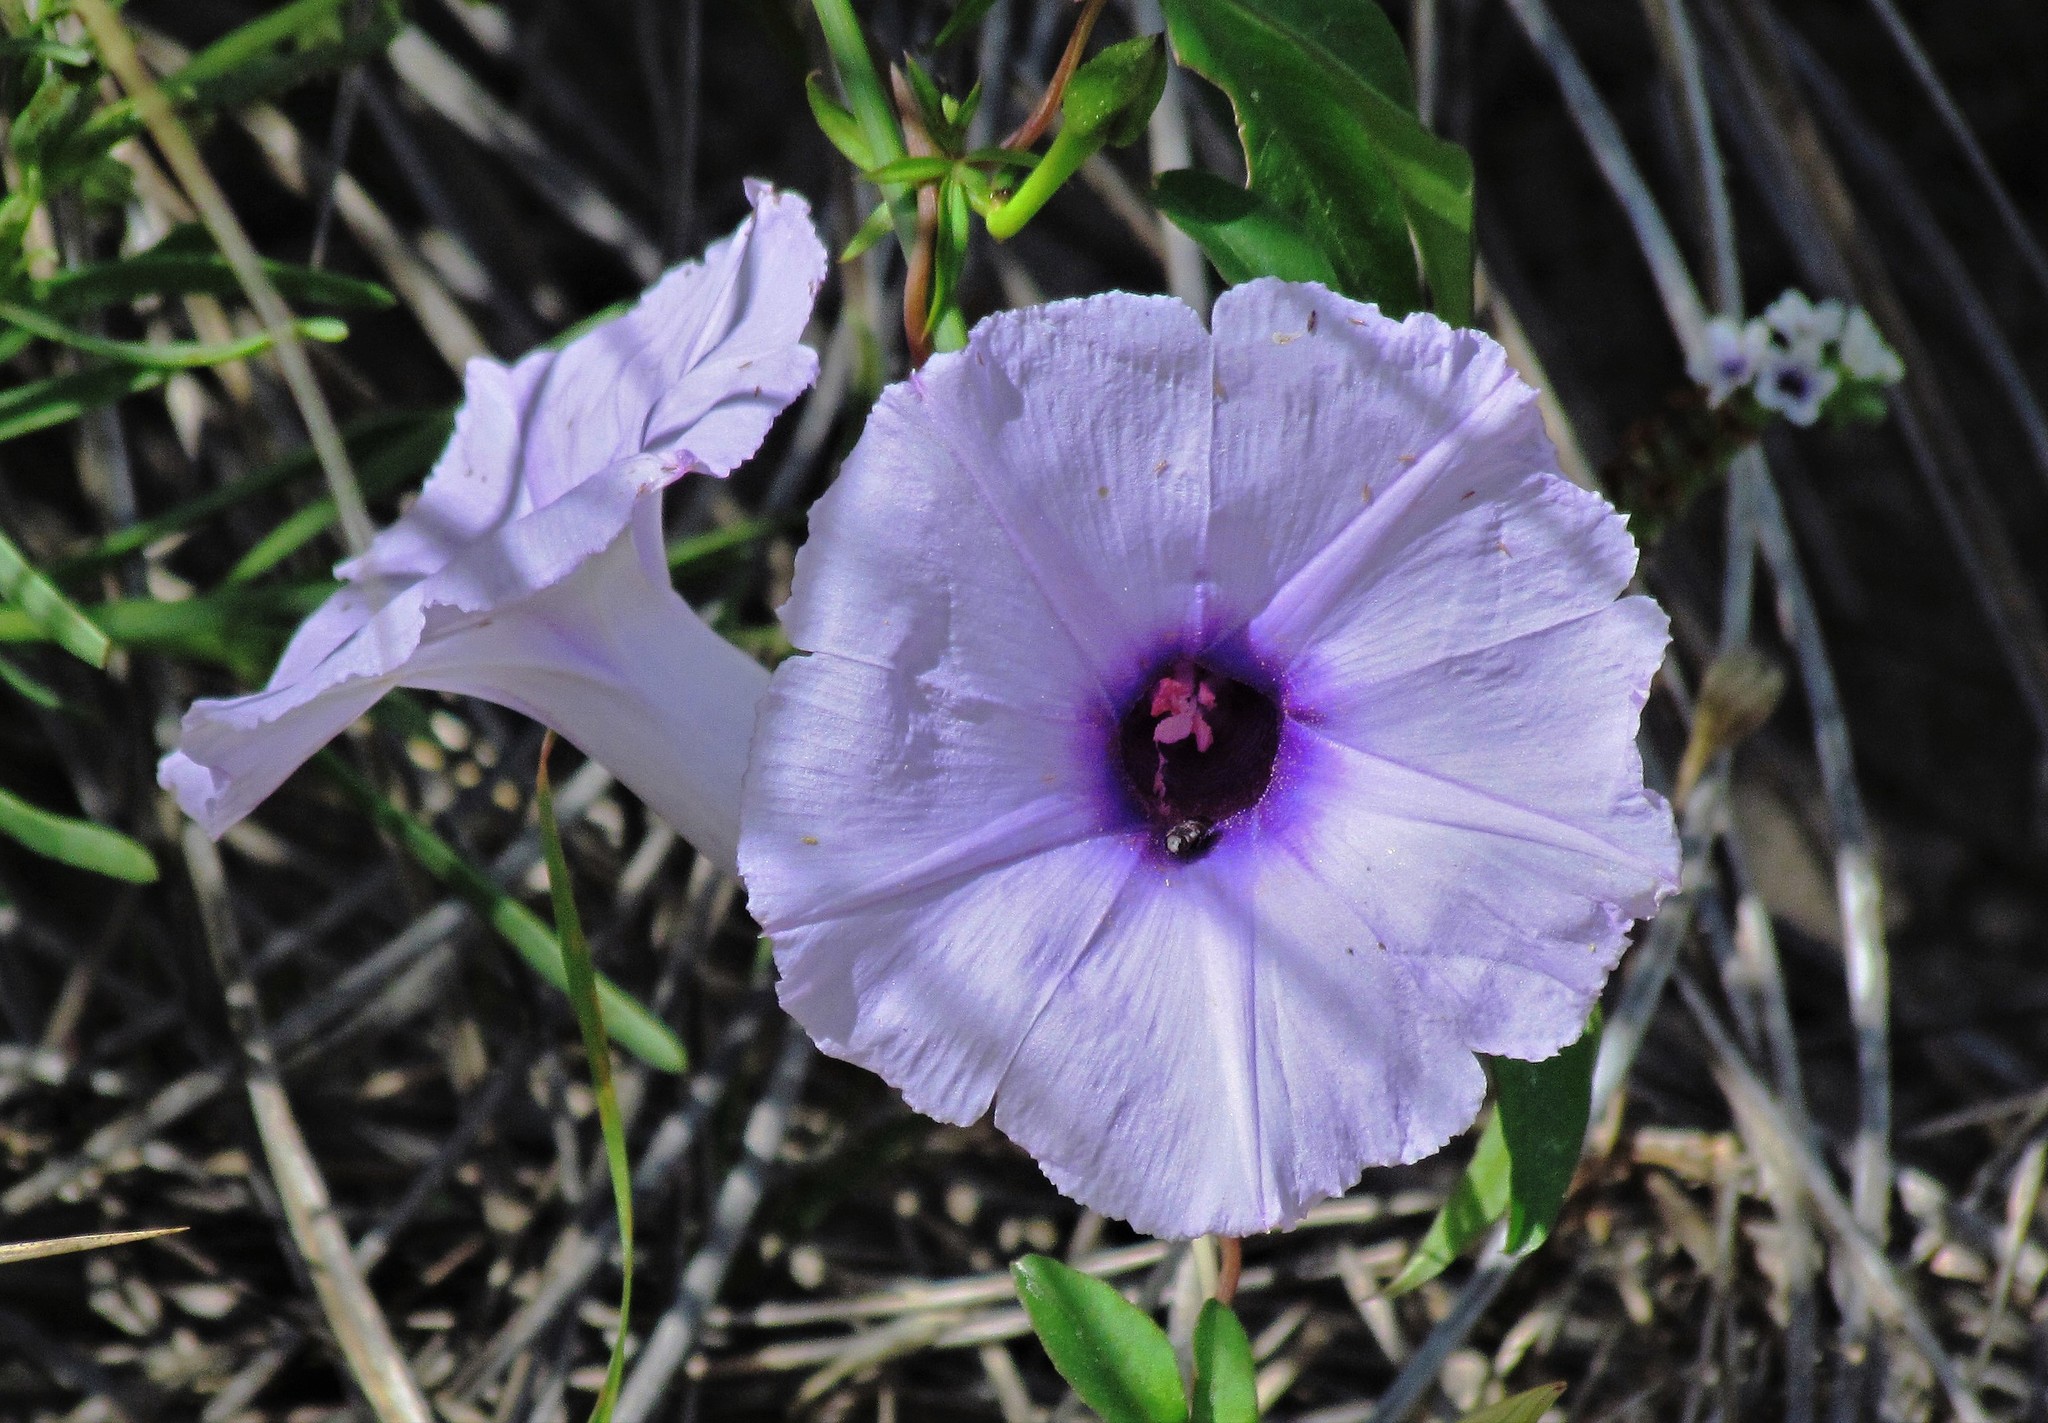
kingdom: Plantae
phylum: Tracheophyta
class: Magnoliopsida
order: Solanales
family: Convolvulaceae
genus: Ipomoea
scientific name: Ipomoea cairica
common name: Mile a minute vine
